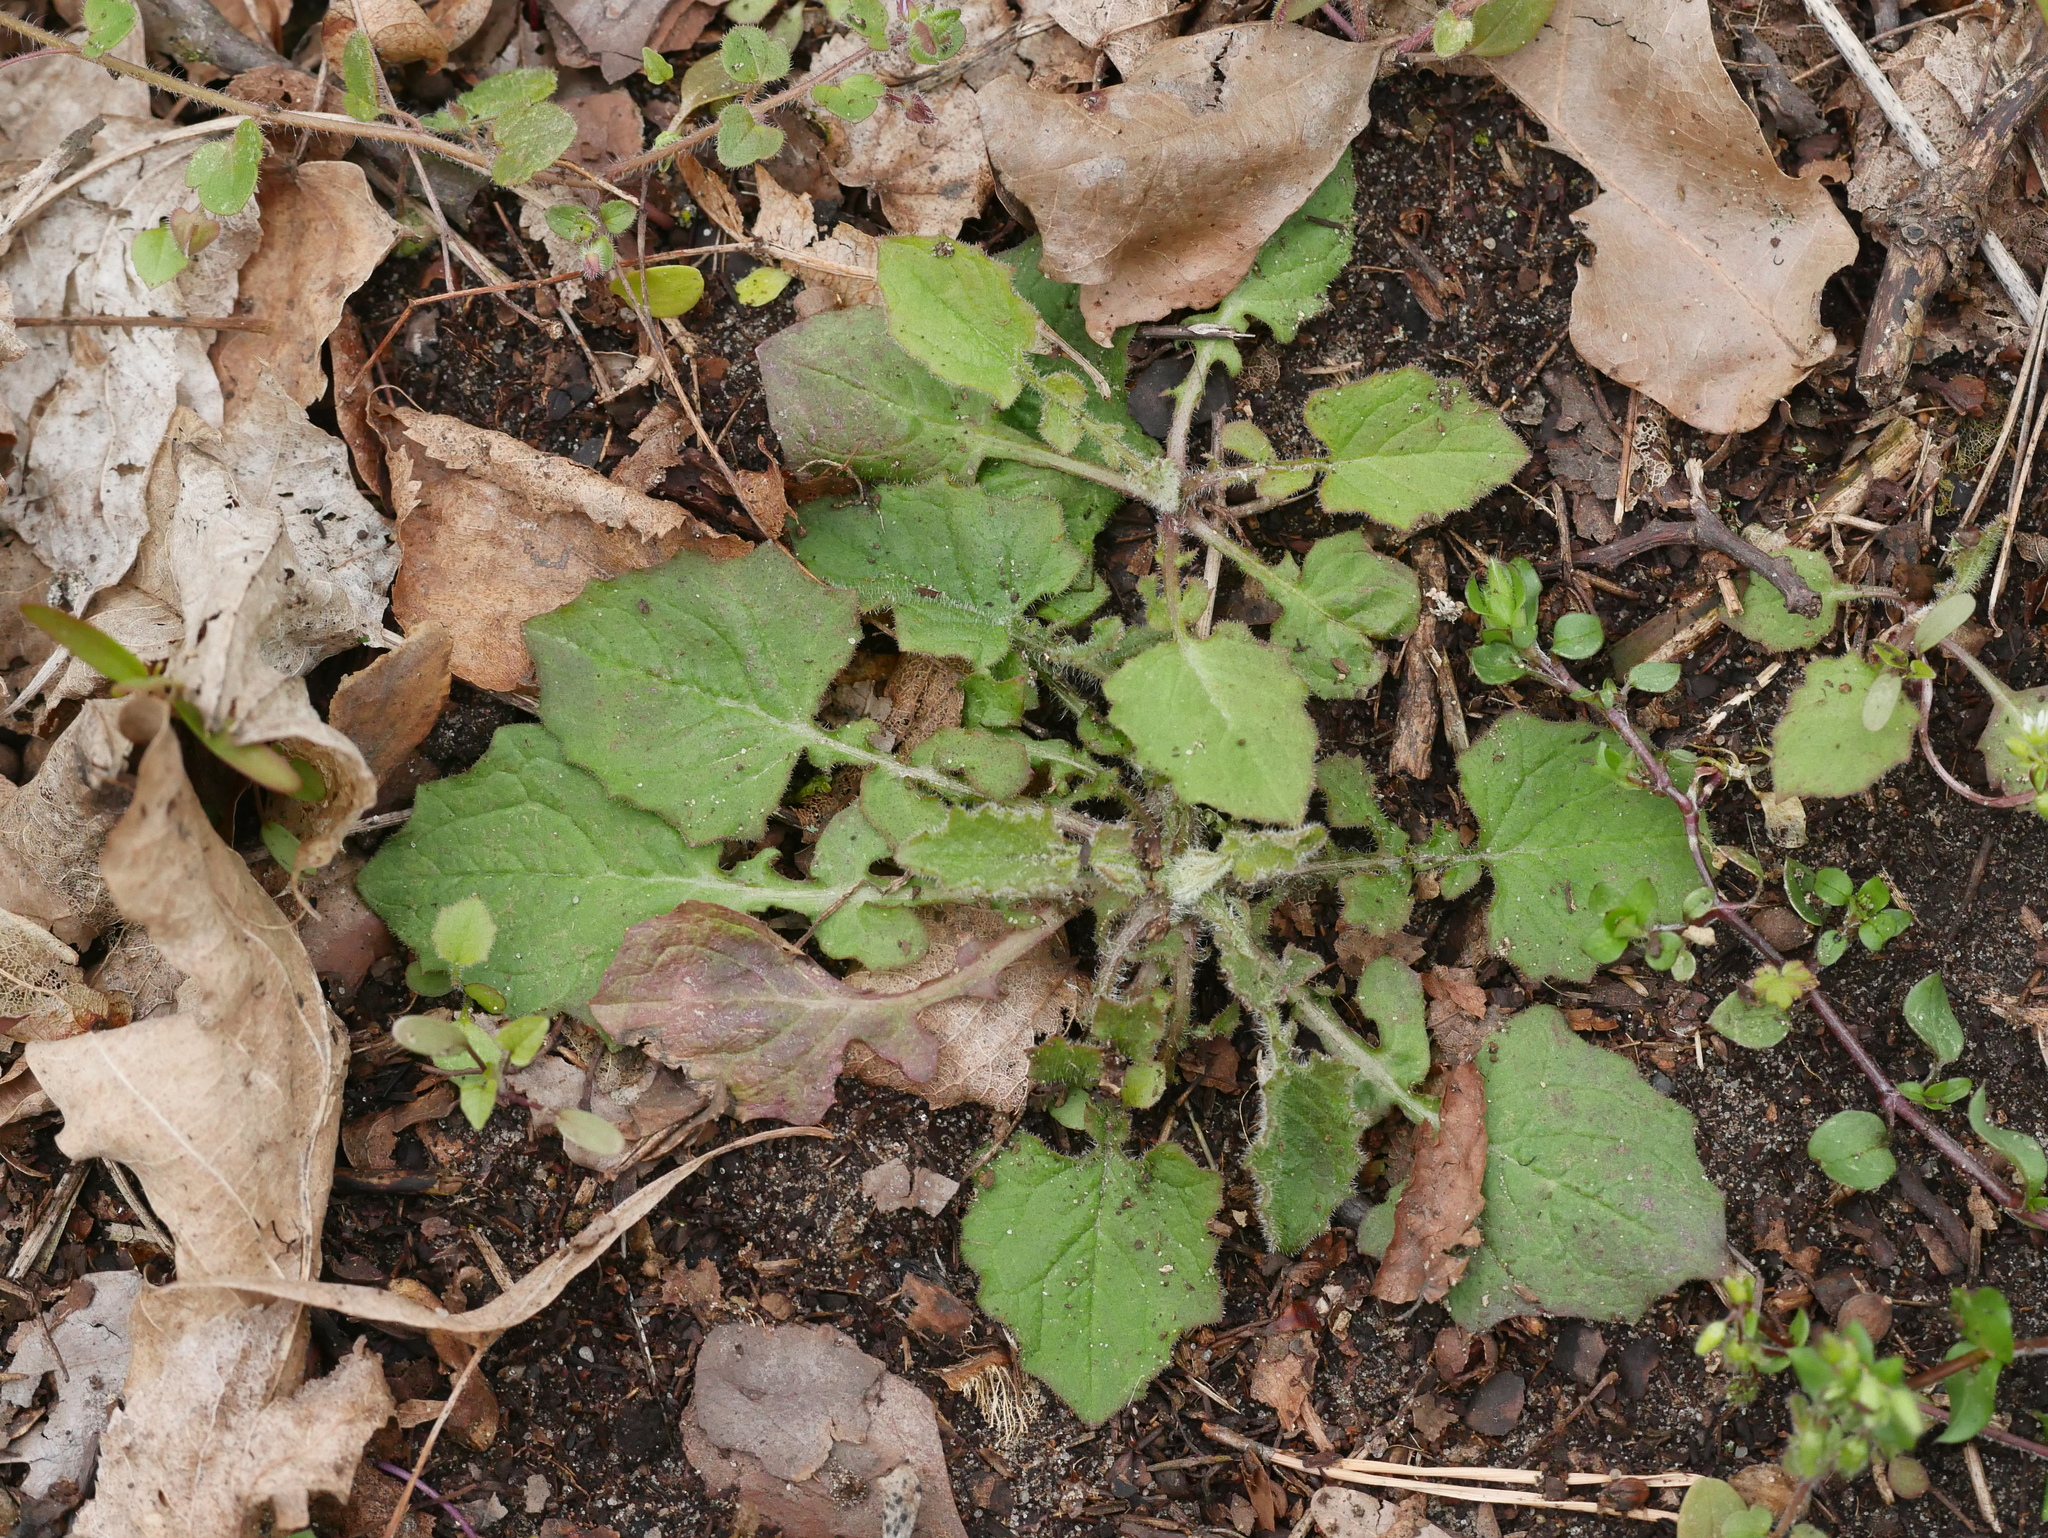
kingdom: Plantae
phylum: Tracheophyta
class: Magnoliopsida
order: Asterales
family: Asteraceae
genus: Lapsana
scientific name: Lapsana communis
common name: Nipplewort
